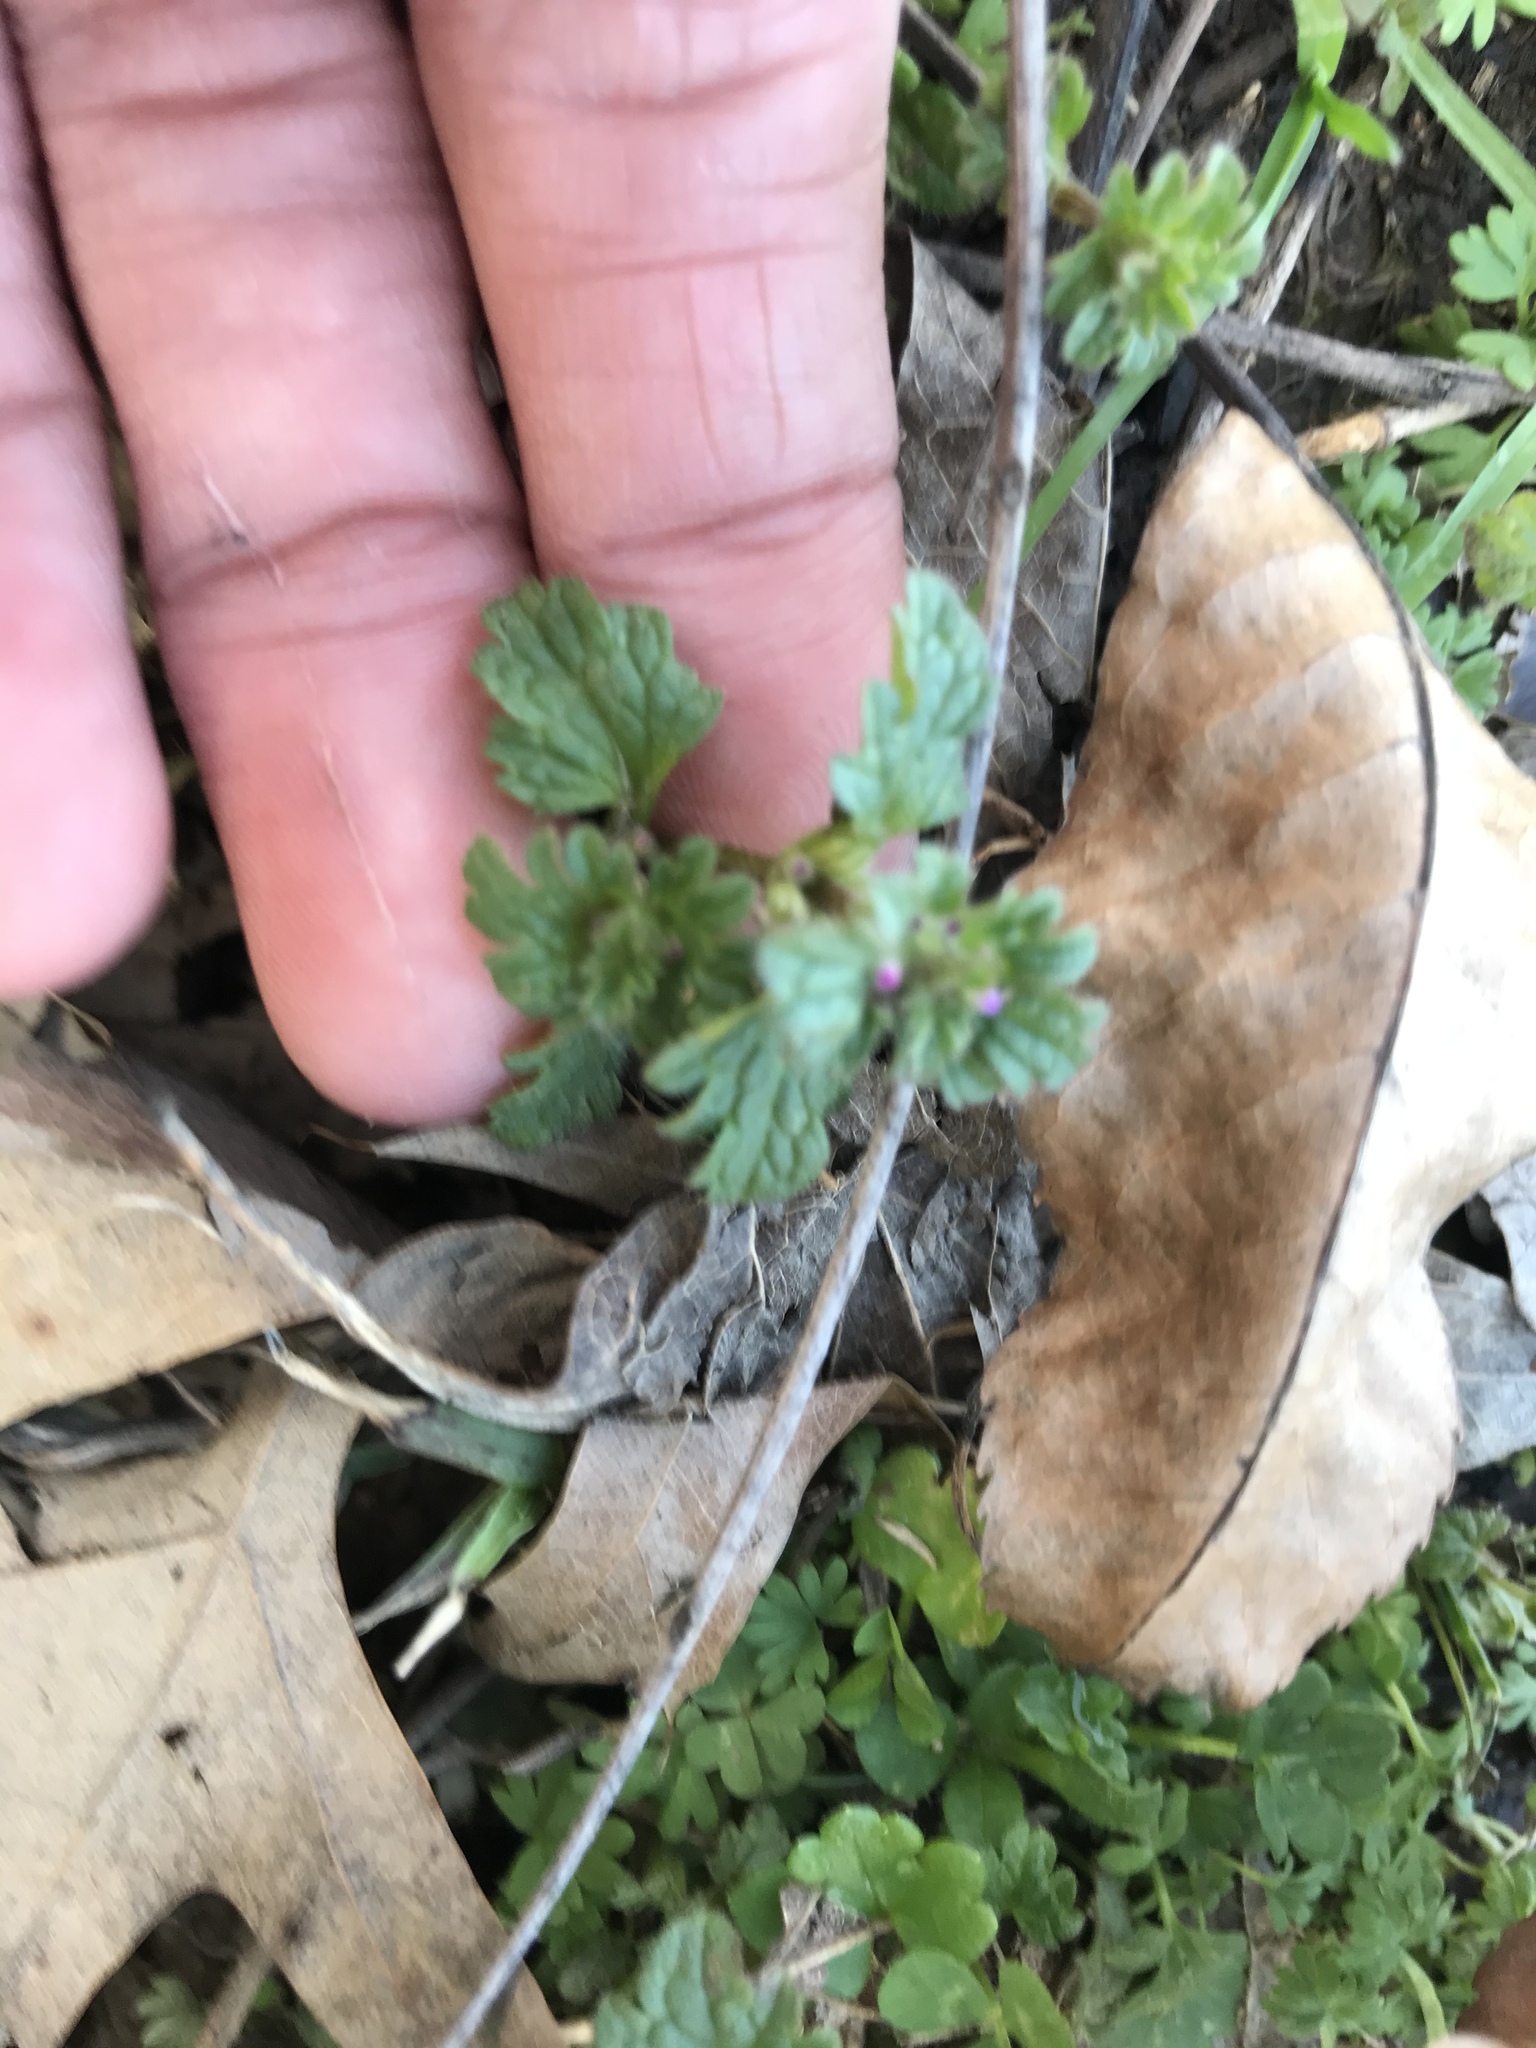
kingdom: Plantae
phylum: Tracheophyta
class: Magnoliopsida
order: Lamiales
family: Lamiaceae
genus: Lamium
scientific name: Lamium amplexicaule
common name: Henbit dead-nettle
